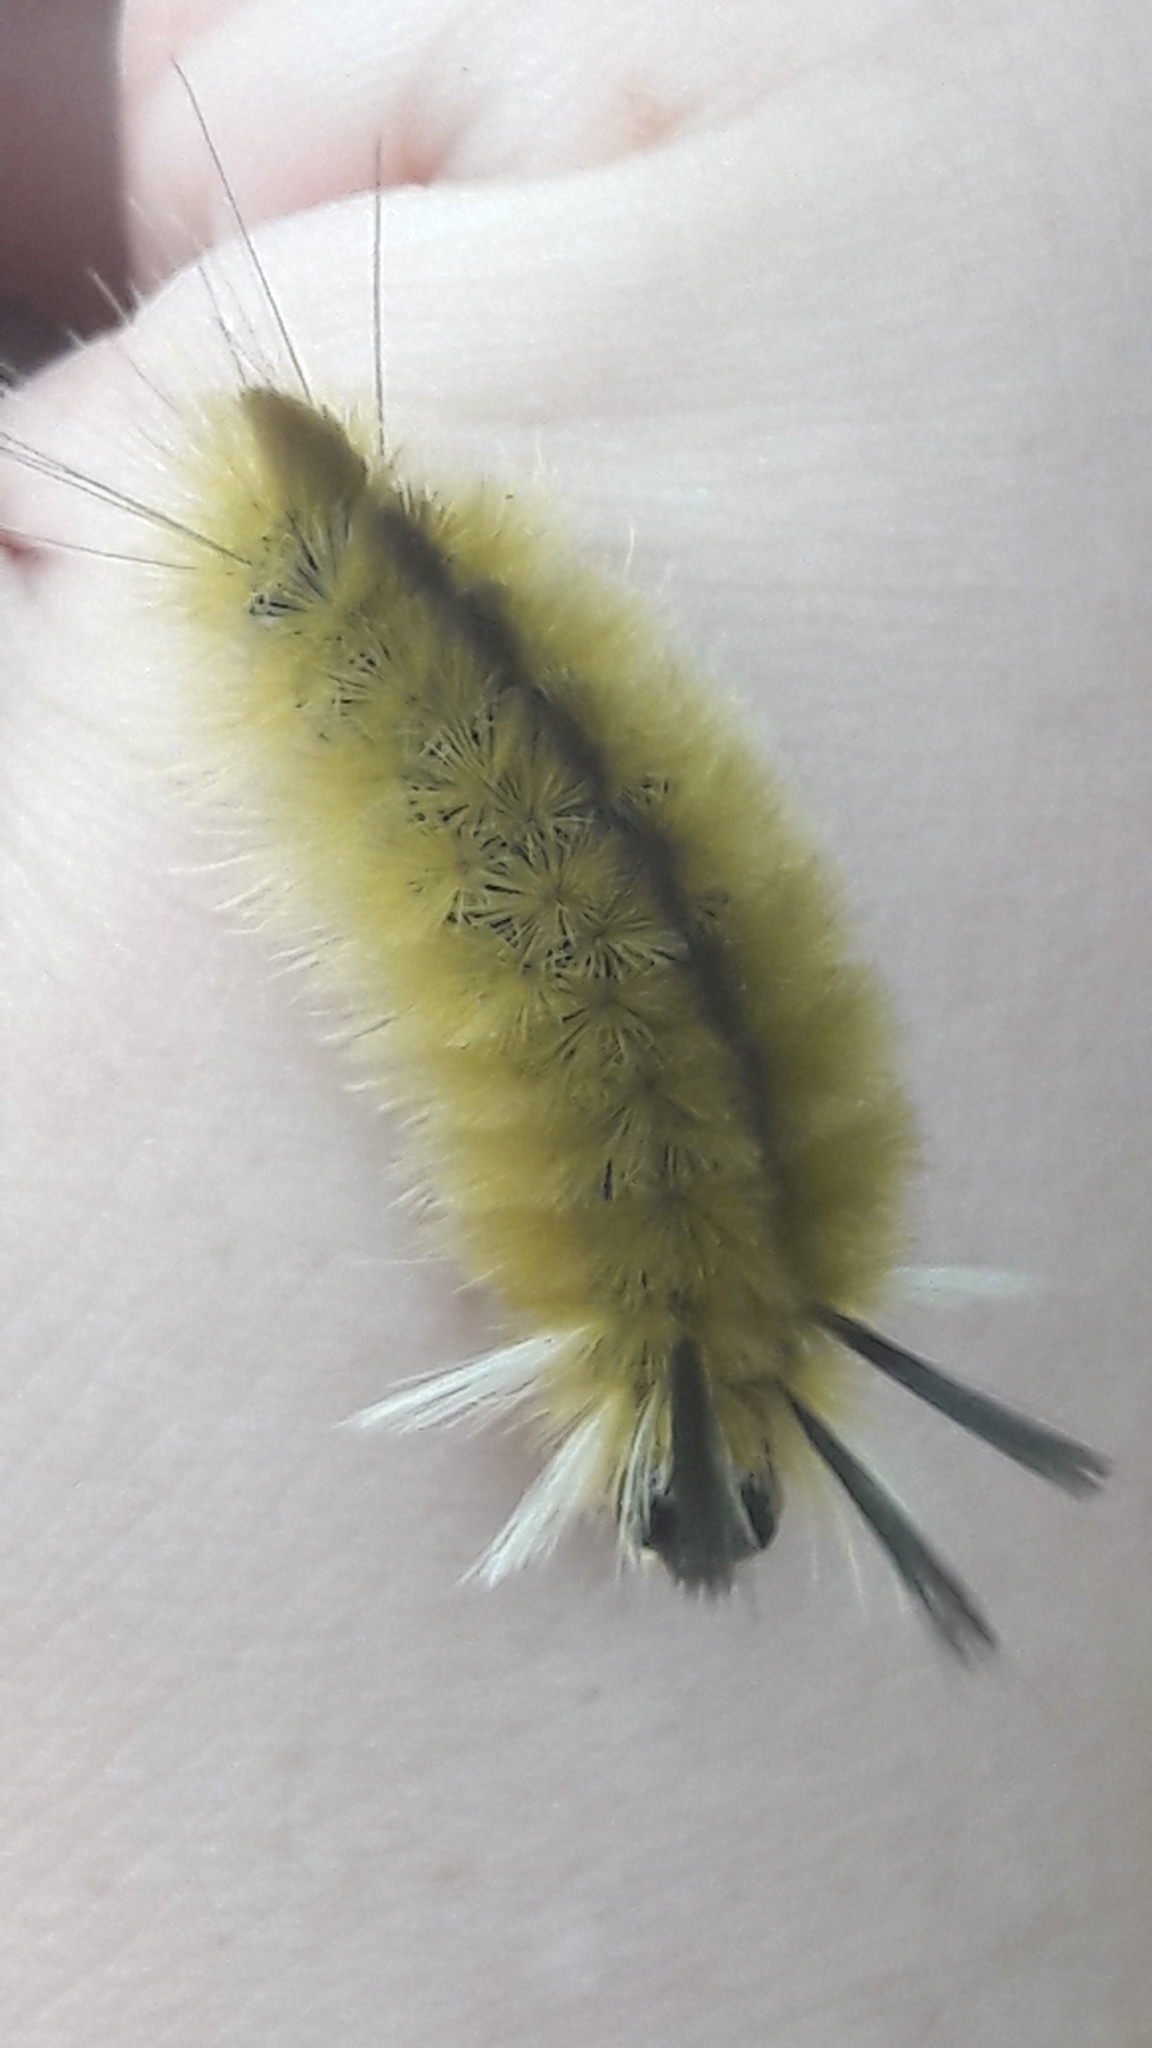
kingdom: Animalia
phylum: Arthropoda
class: Insecta
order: Lepidoptera
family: Erebidae
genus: Halysidota
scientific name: Halysidota tessellaris
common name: Banded tussock moth
